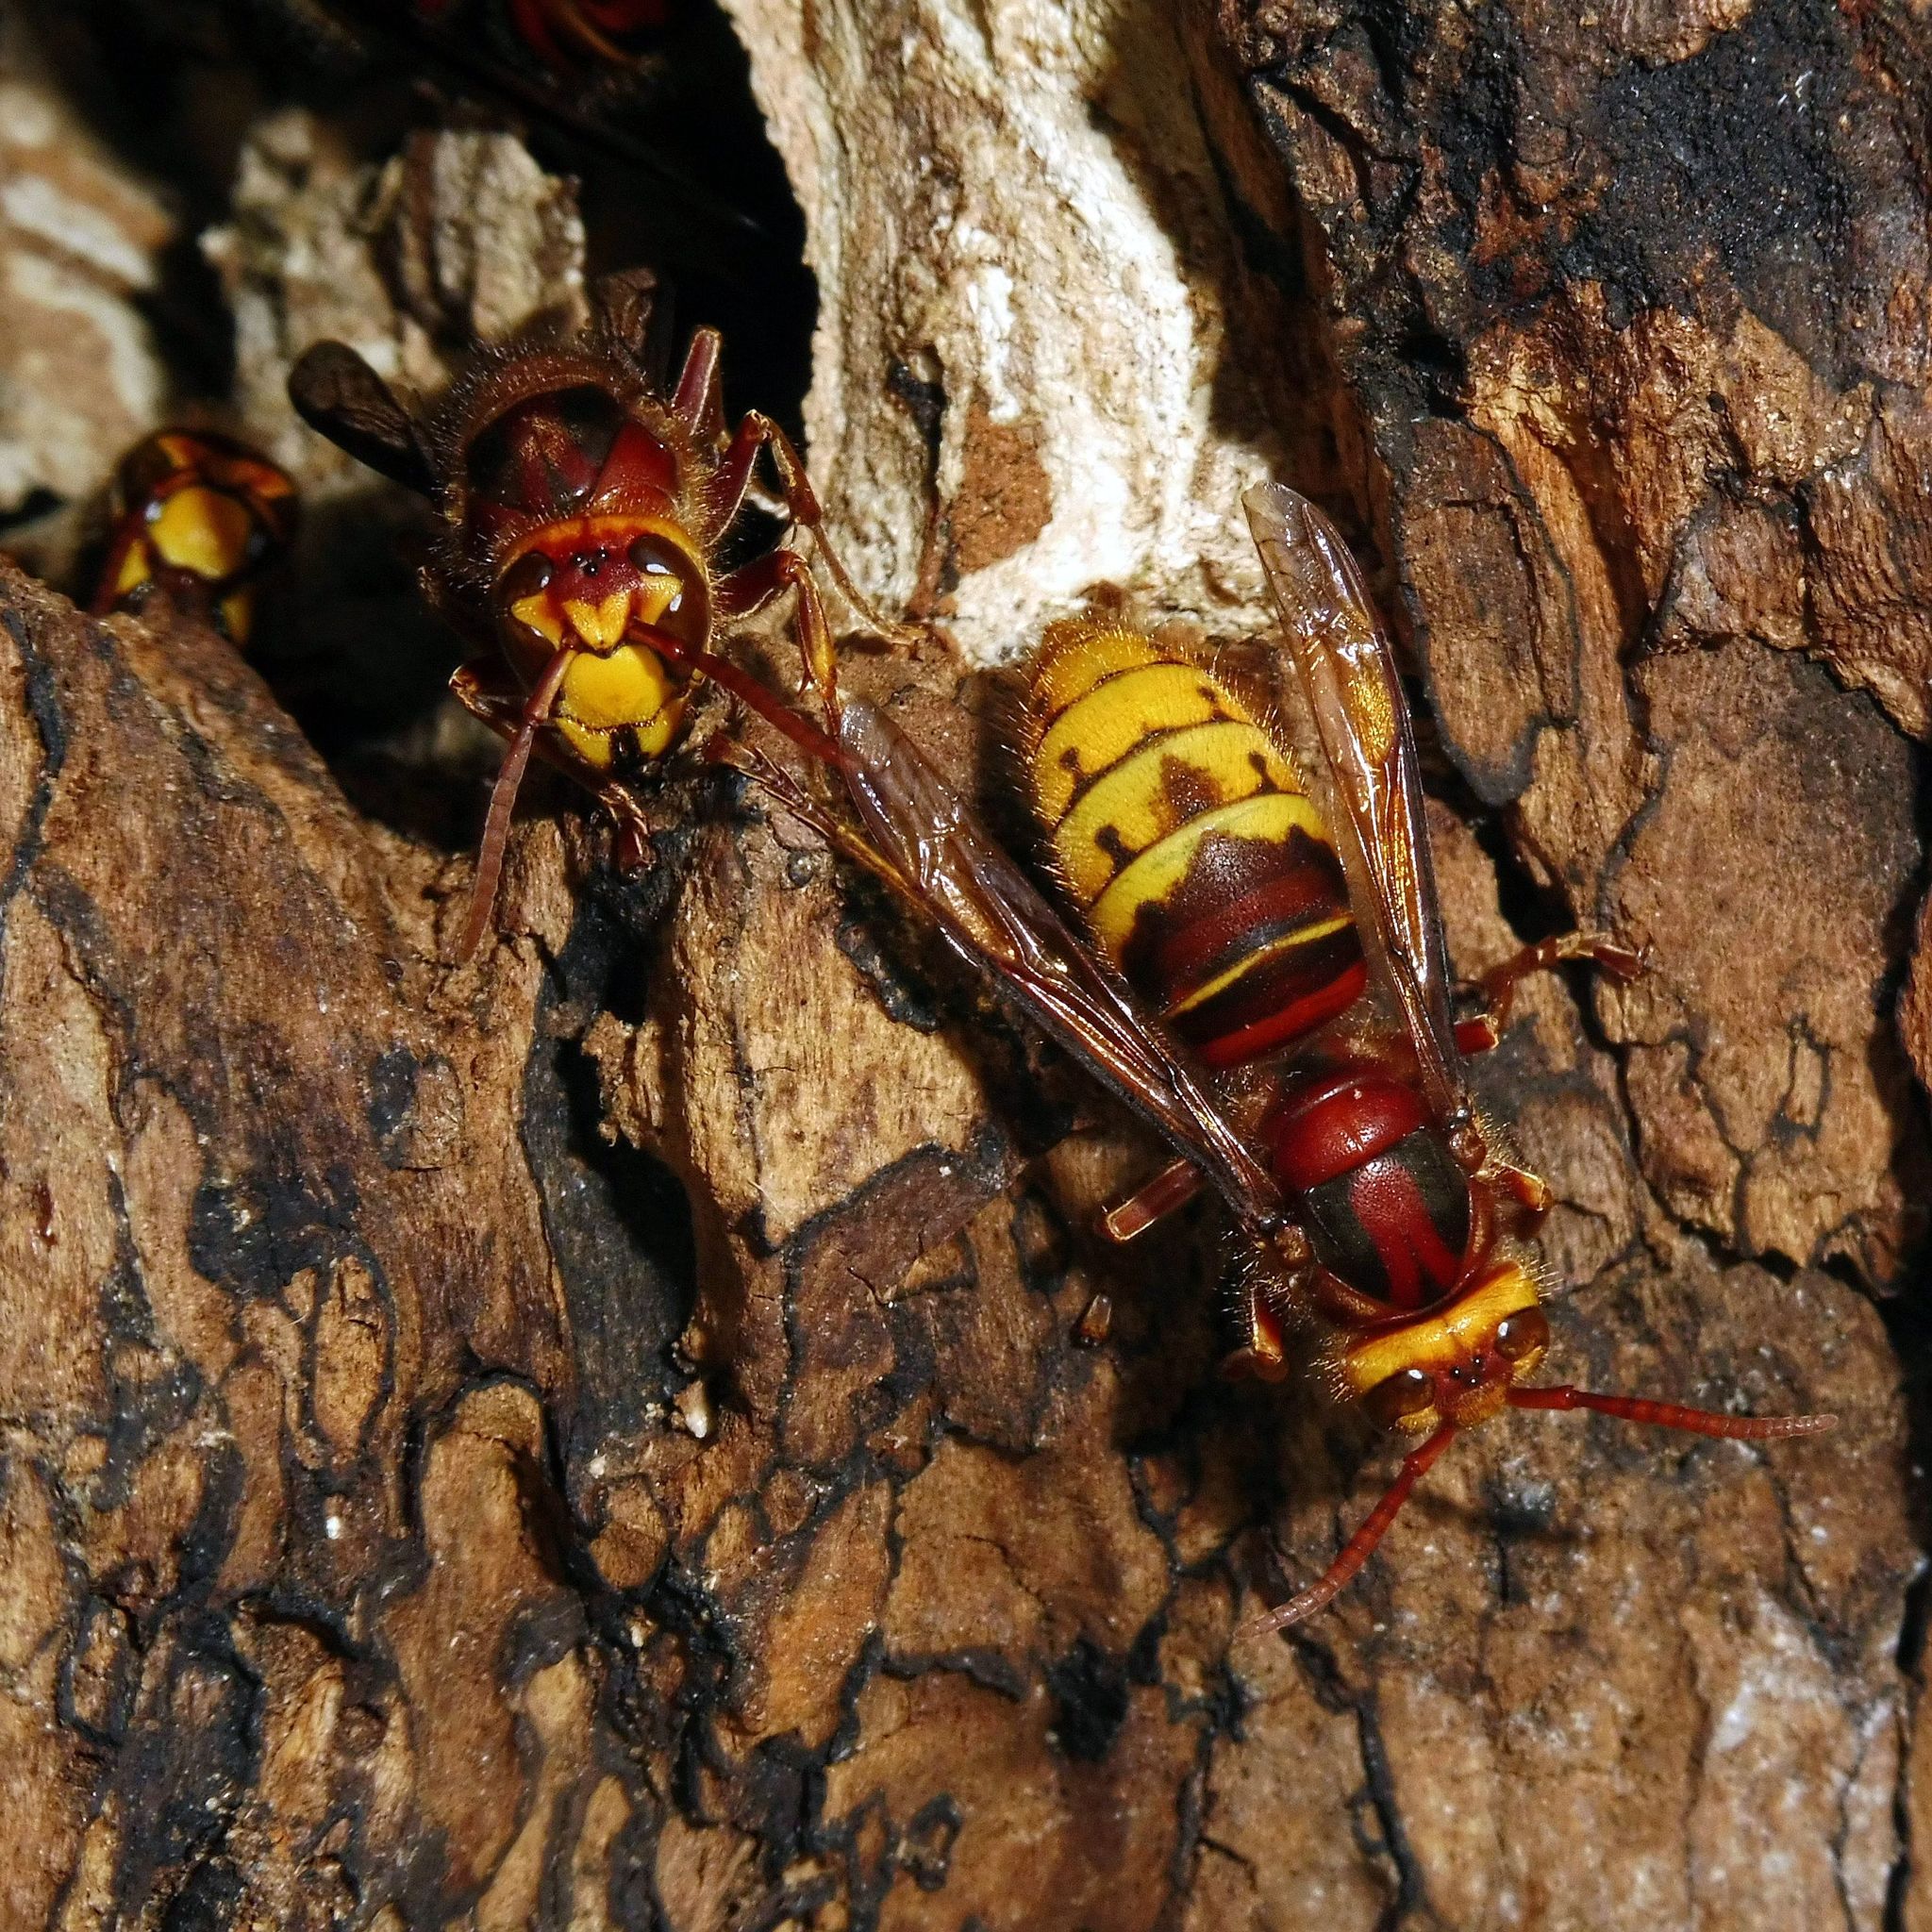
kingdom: Animalia
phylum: Arthropoda
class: Insecta
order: Hymenoptera
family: Vespidae
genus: Vespa
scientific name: Vespa crabro
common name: Hornet
